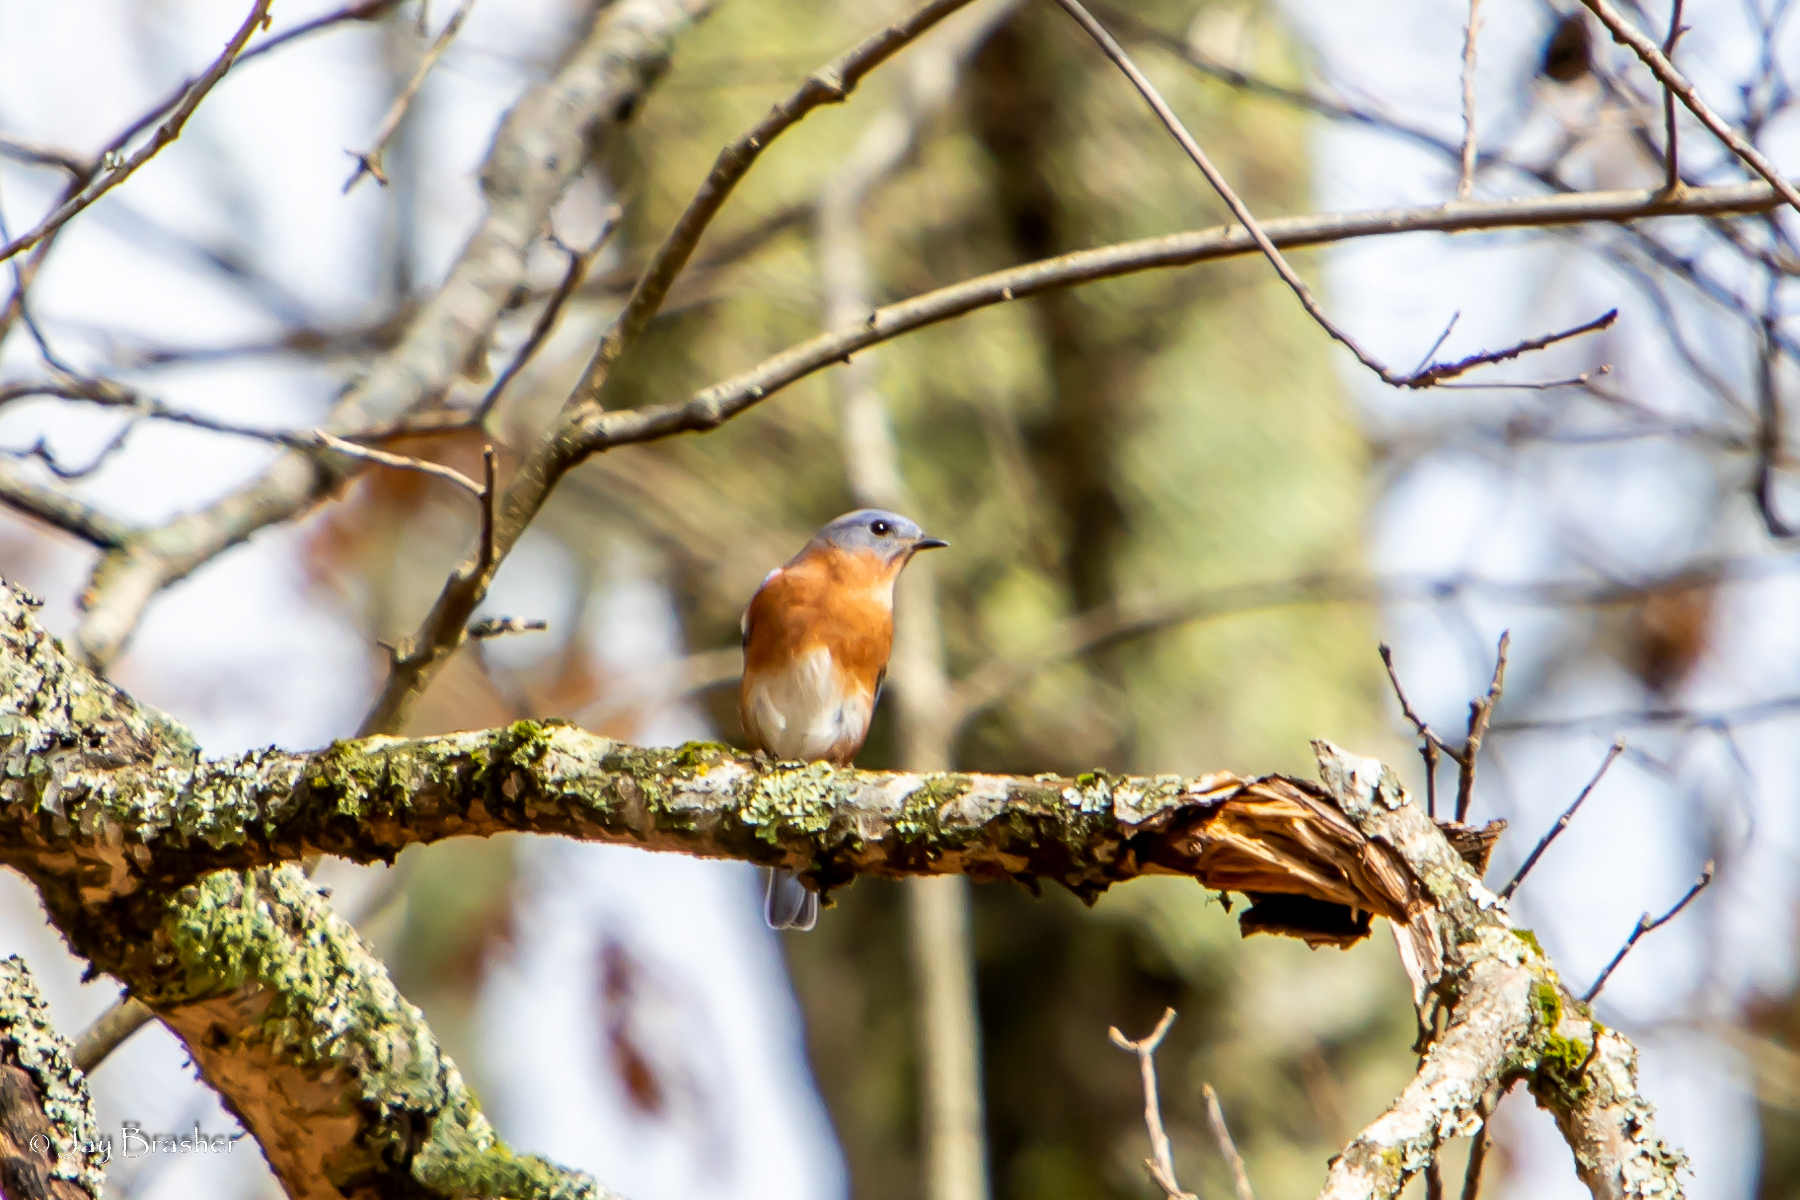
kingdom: Animalia
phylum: Chordata
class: Aves
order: Passeriformes
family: Turdidae
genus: Sialia
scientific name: Sialia sialis
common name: Eastern bluebird
